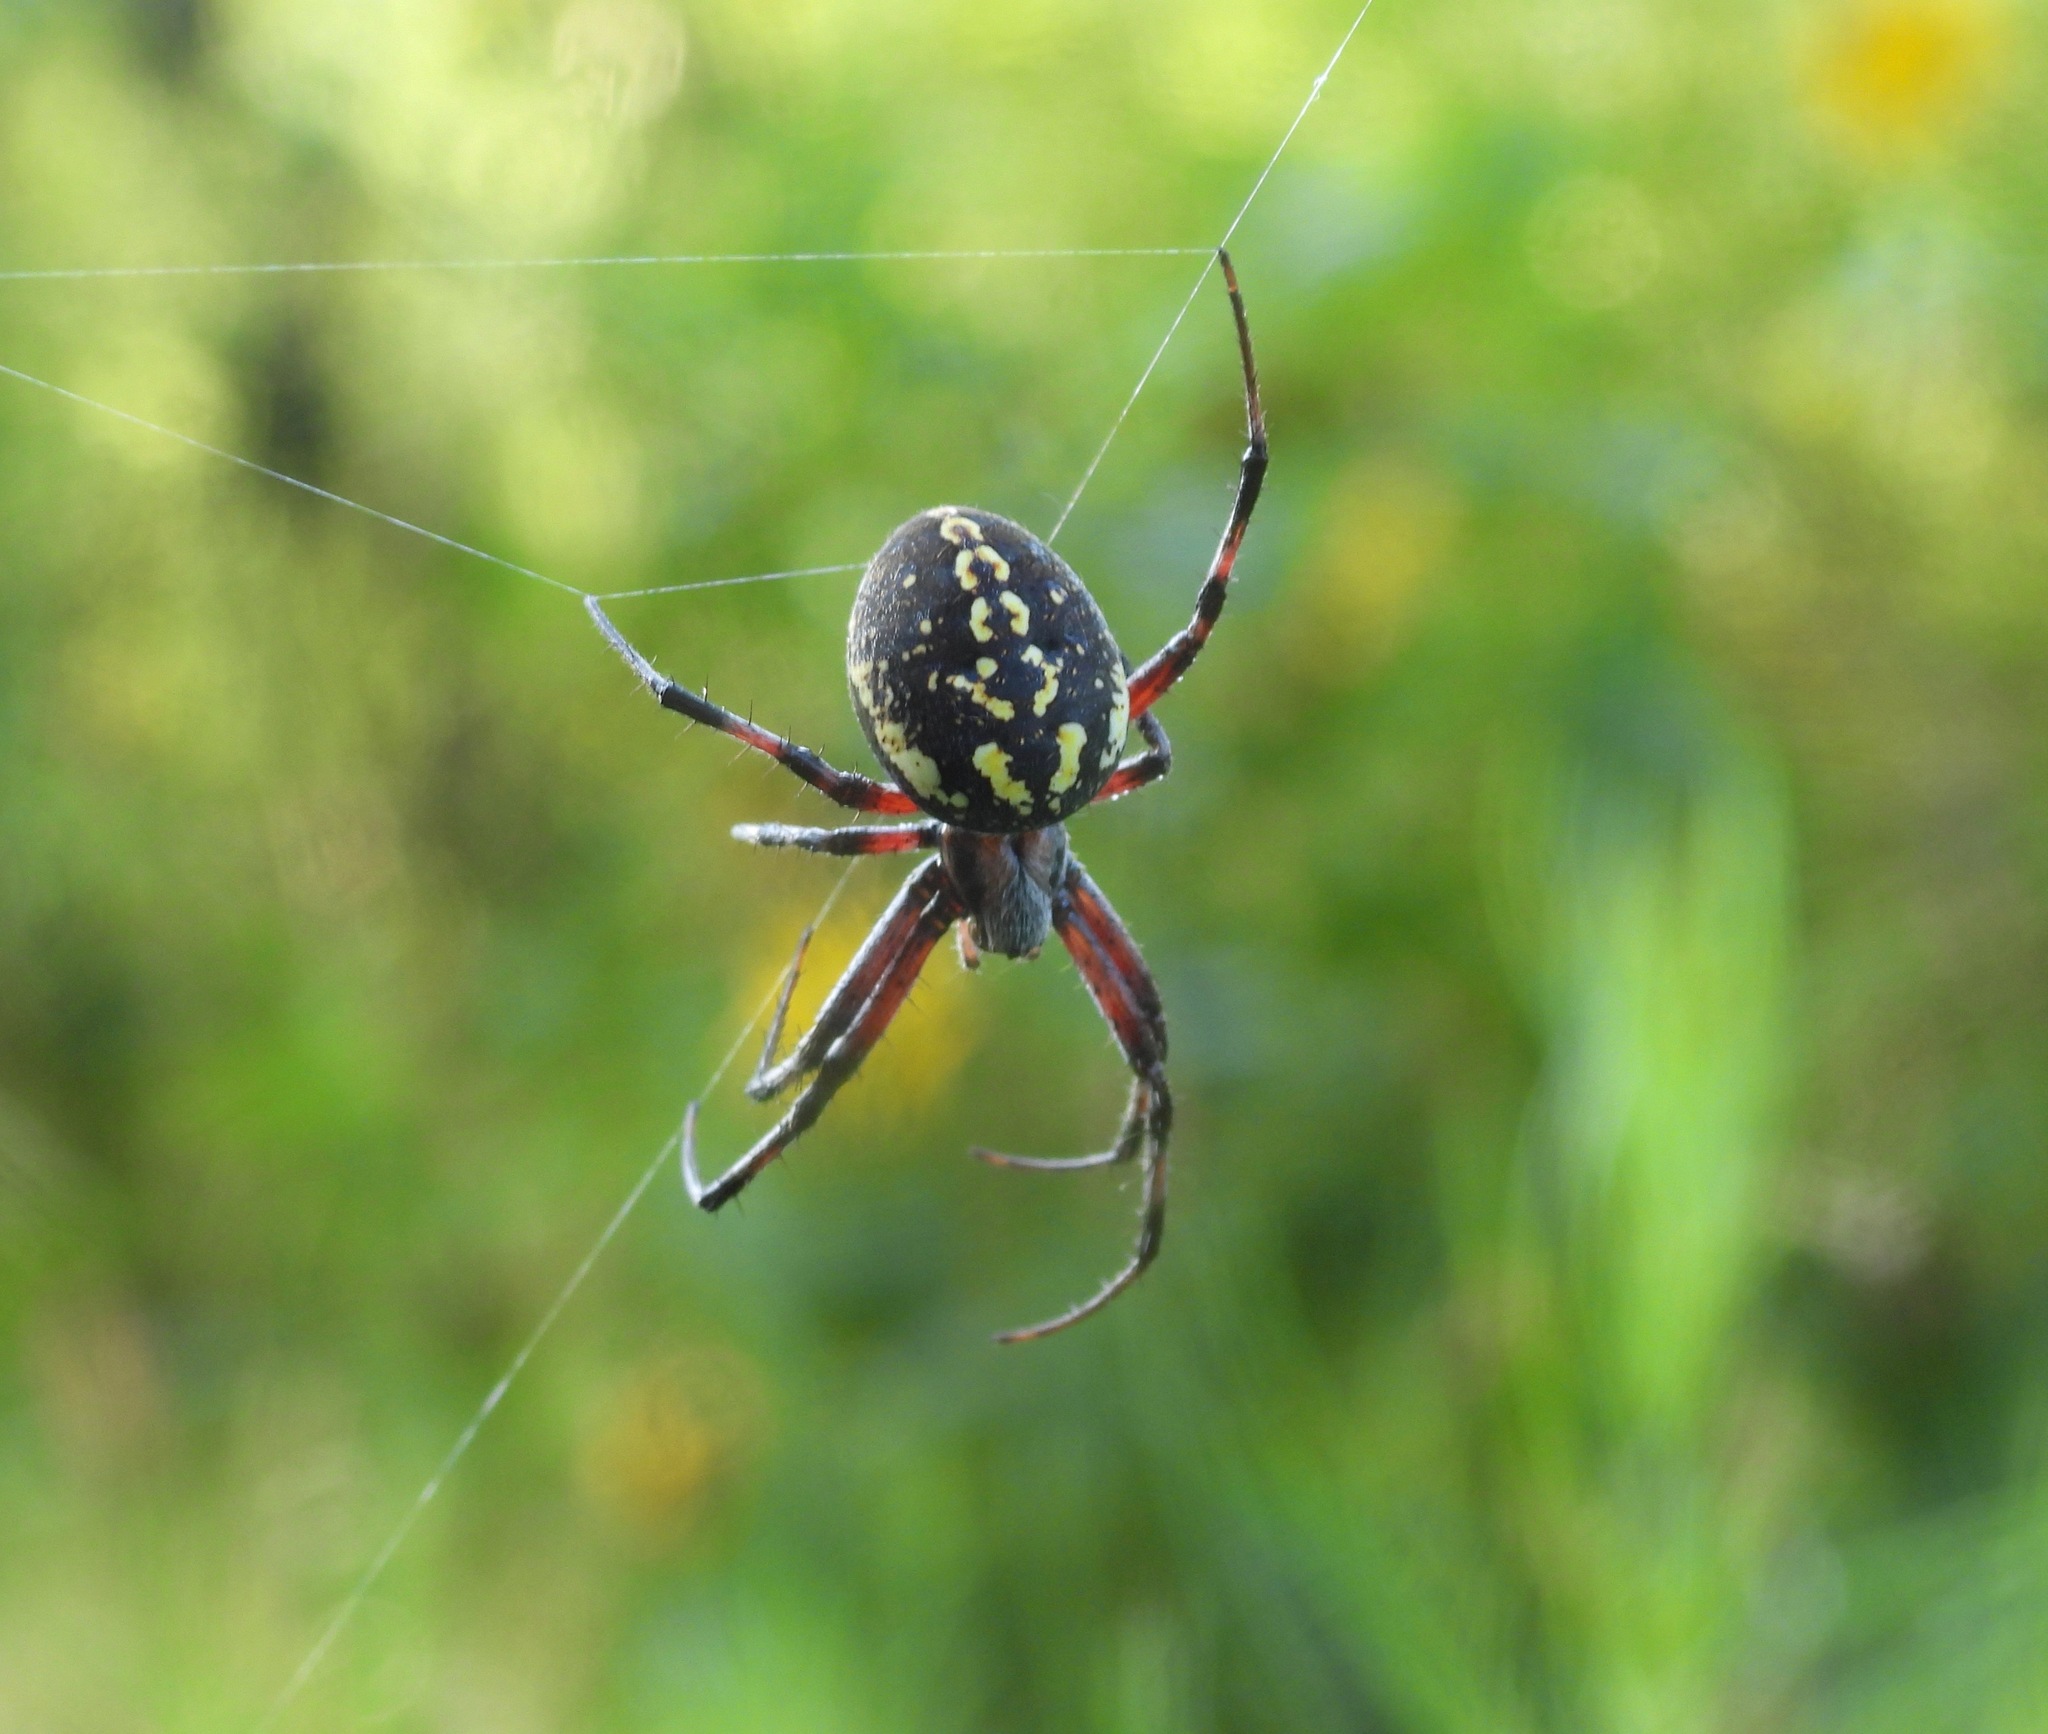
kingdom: Animalia
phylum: Arthropoda
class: Arachnida
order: Araneae
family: Araneidae
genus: Neoscona
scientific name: Neoscona oaxacensis
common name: Orb weavers
